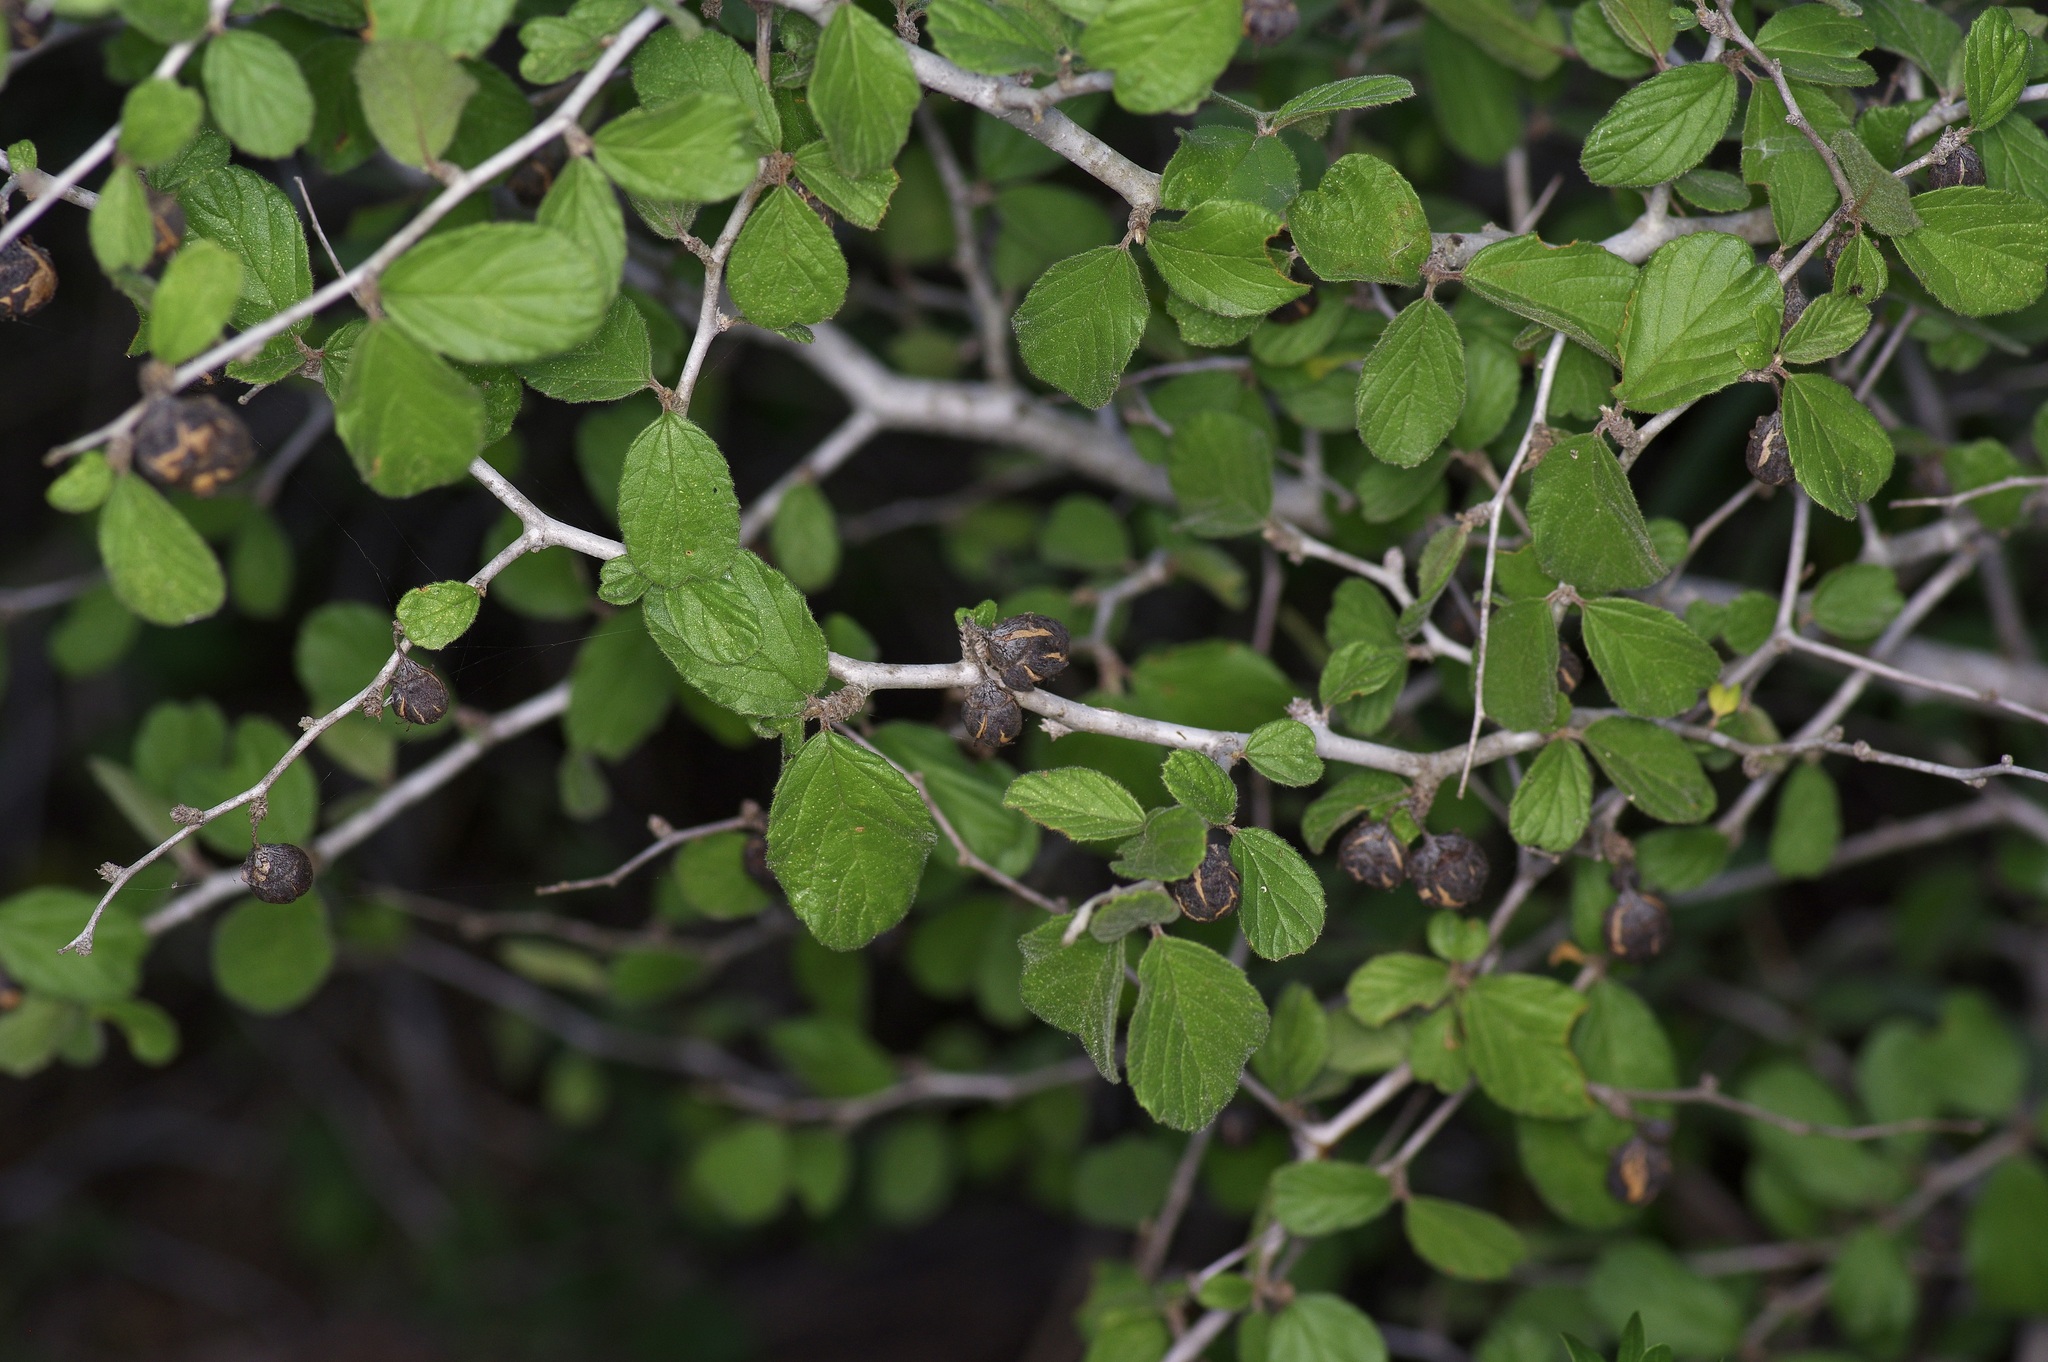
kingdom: Plantae
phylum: Tracheophyta
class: Magnoliopsida
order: Rosales
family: Rhamnaceae
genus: Colubrina
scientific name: Colubrina texensis
